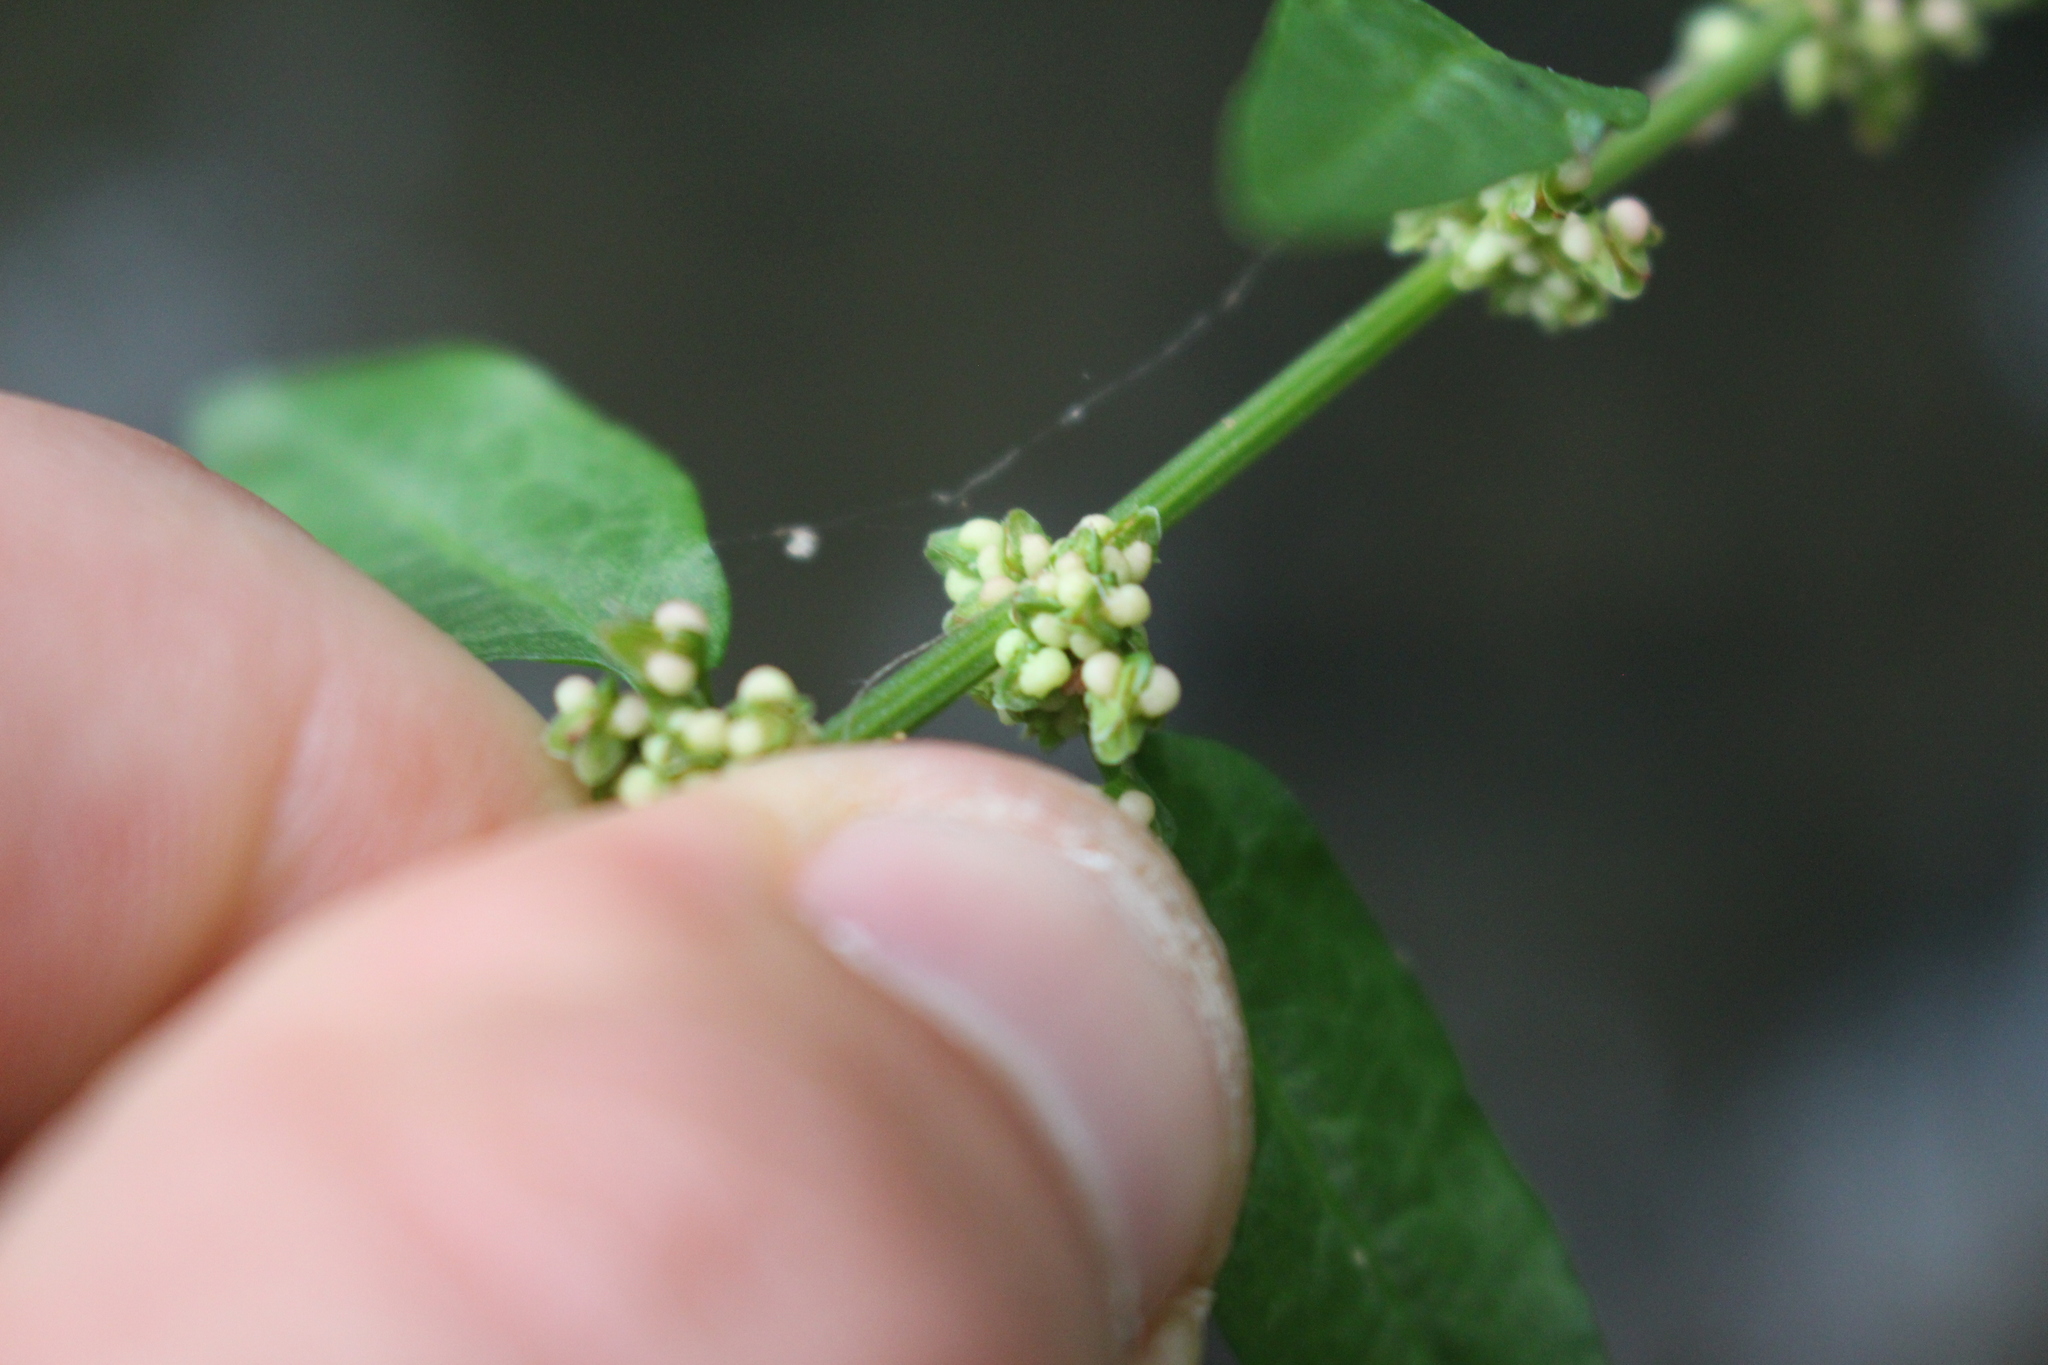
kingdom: Plantae
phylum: Tracheophyta
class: Magnoliopsida
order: Caryophyllales
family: Polygonaceae
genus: Rumex
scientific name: Rumex conglomeratus
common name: Clustered dock
